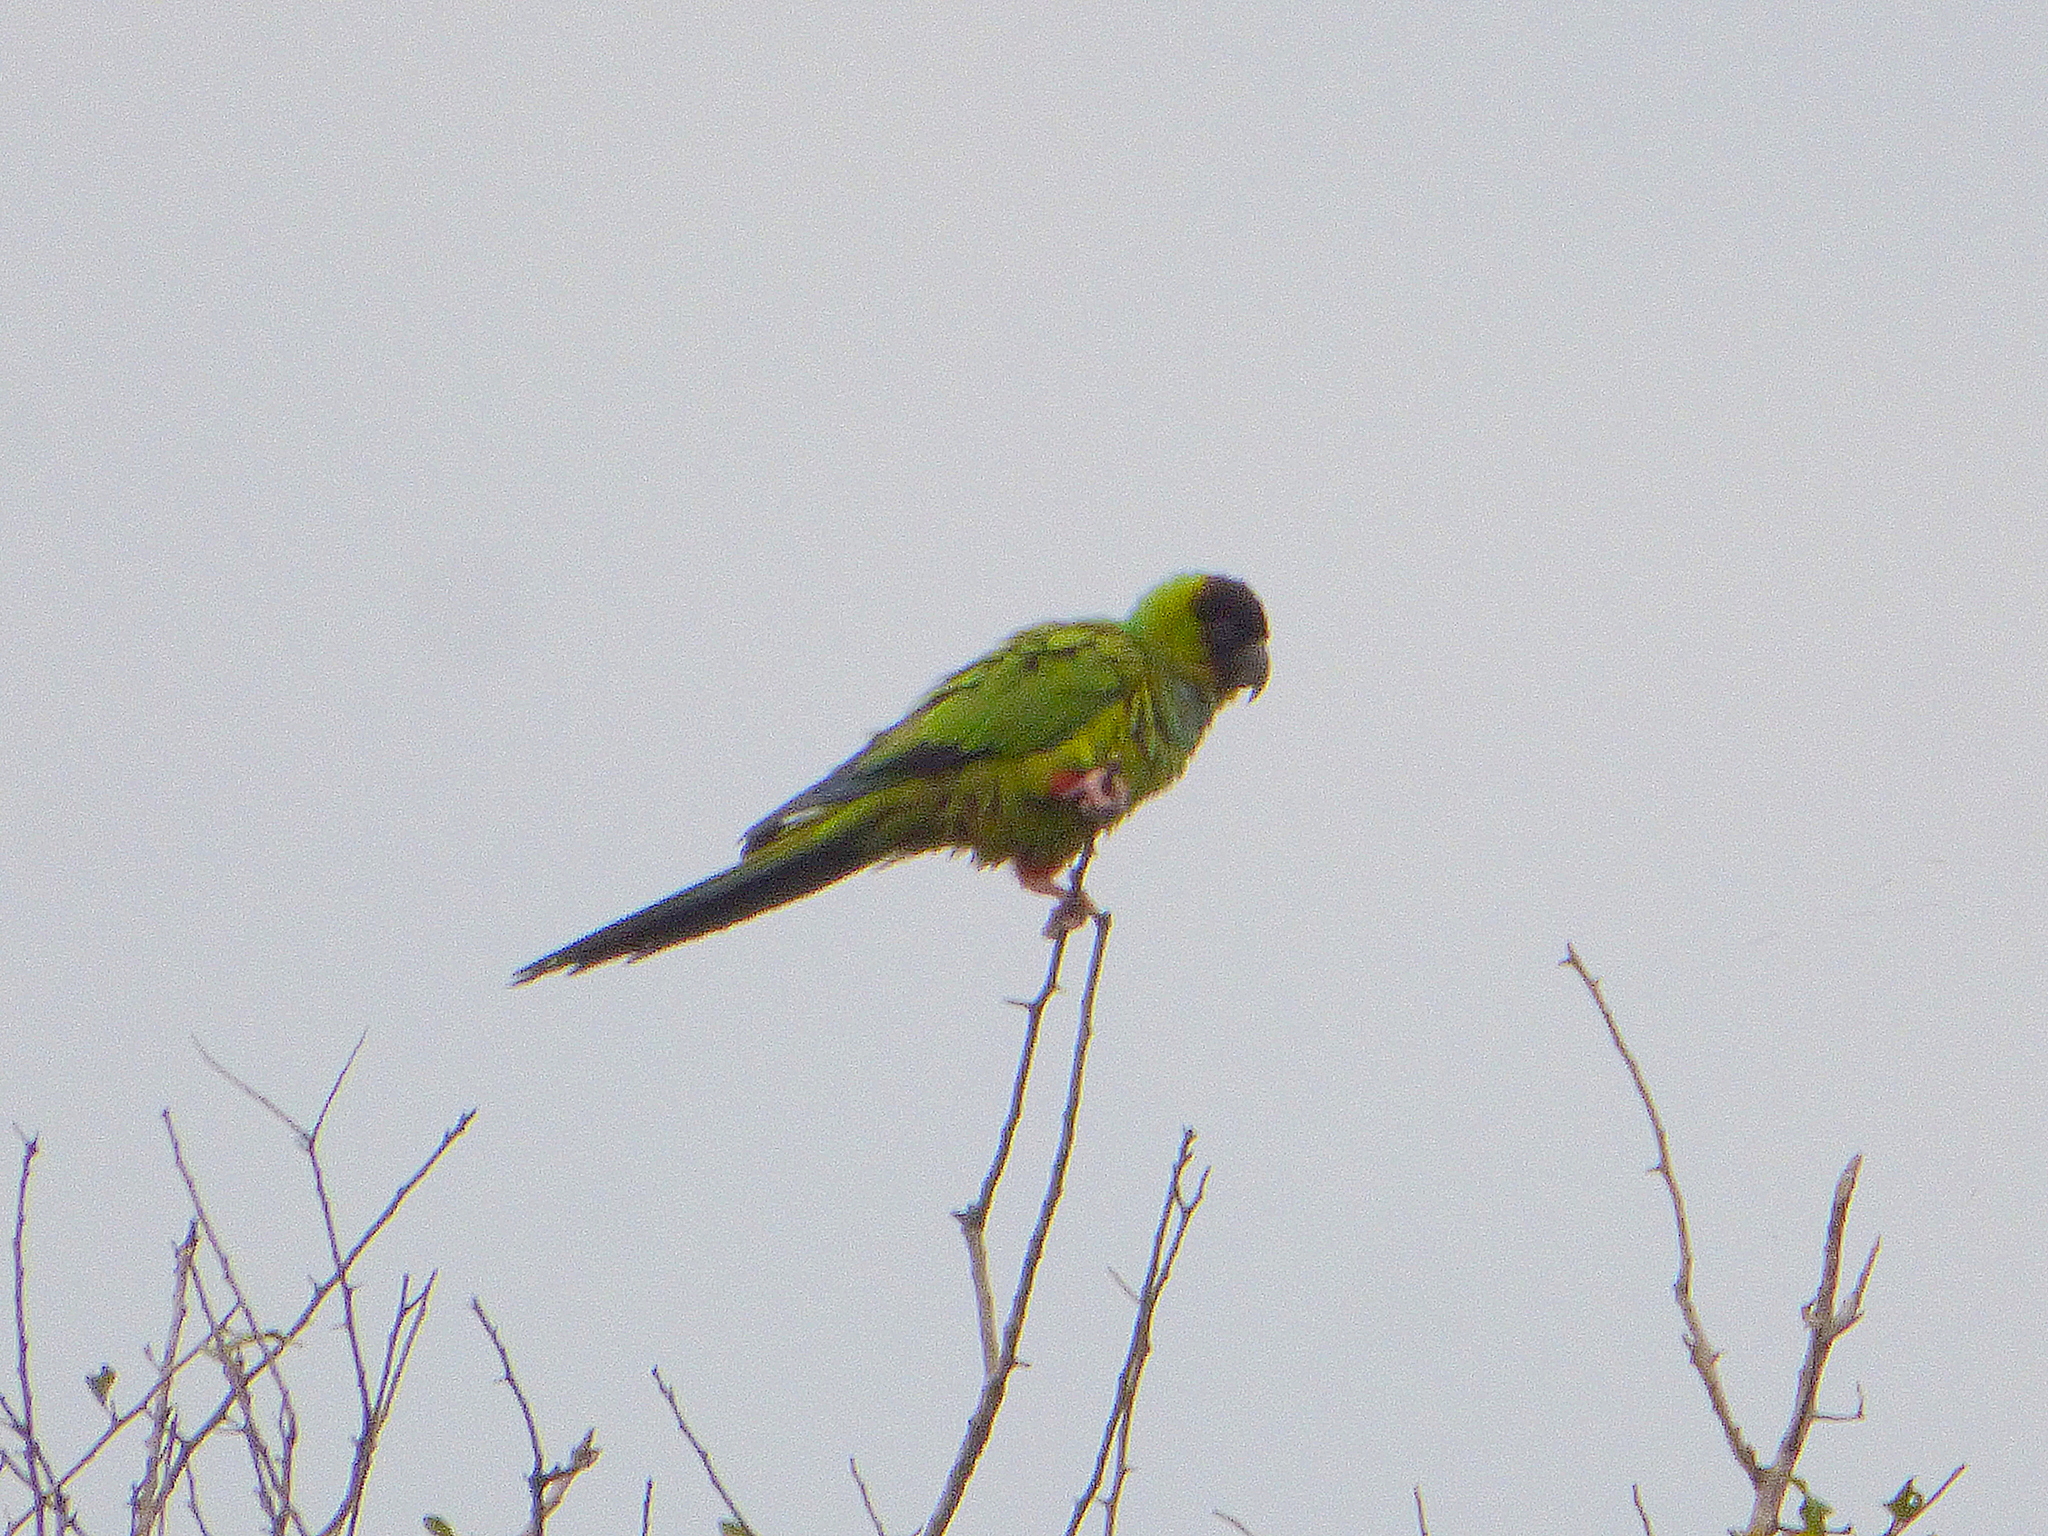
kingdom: Animalia
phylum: Chordata
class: Aves
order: Psittaciformes
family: Psittacidae
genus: Nandayus
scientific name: Nandayus nenday
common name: Nanday parakeet
